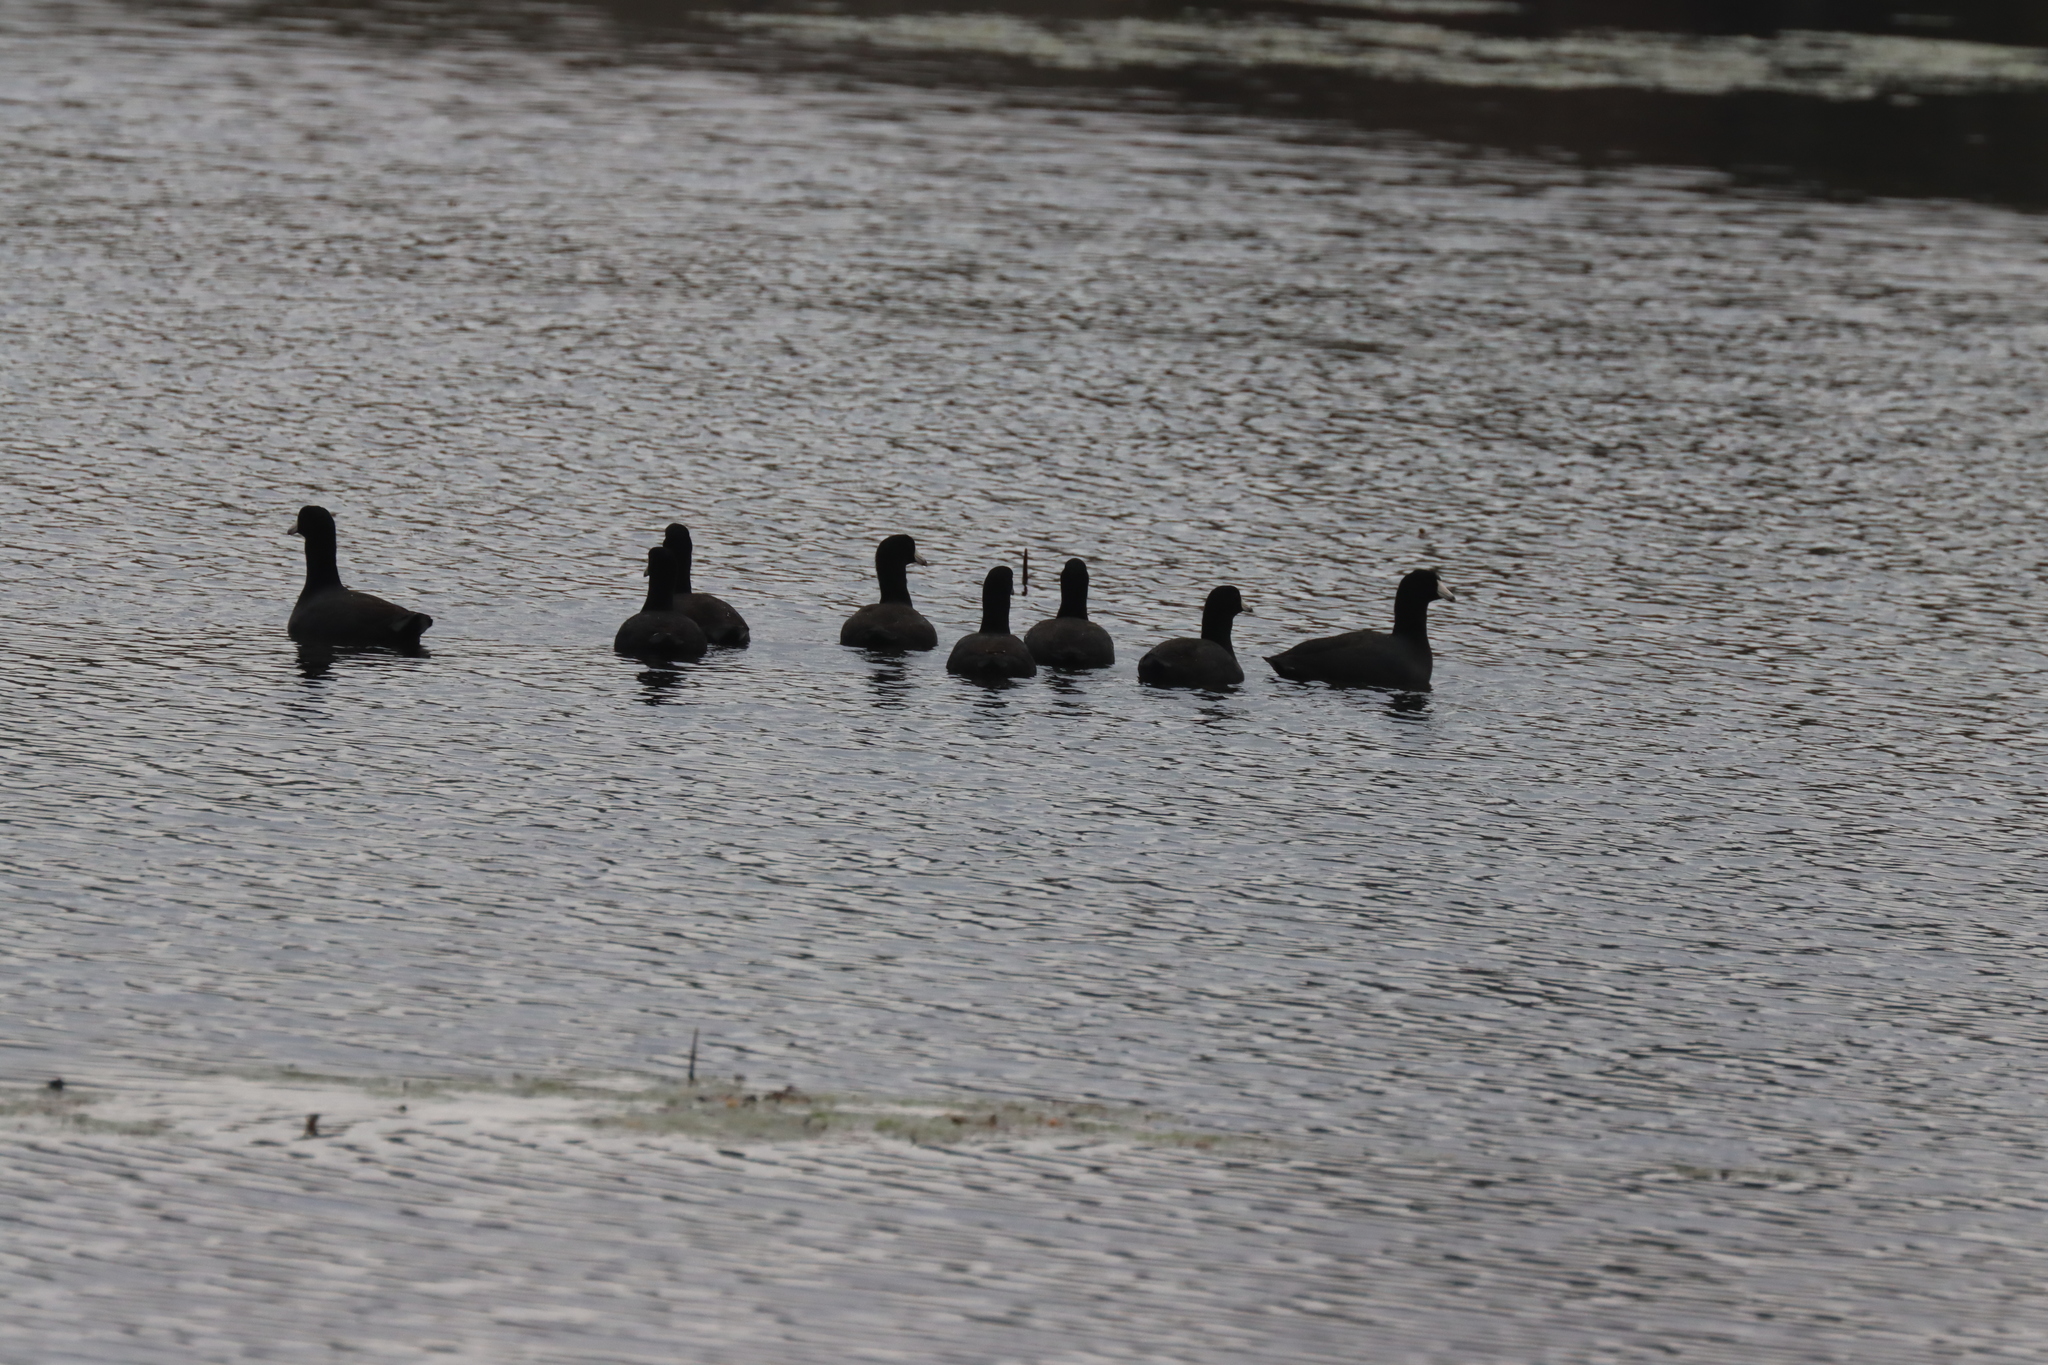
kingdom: Animalia
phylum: Chordata
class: Aves
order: Gruiformes
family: Rallidae
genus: Fulica
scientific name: Fulica americana
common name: American coot
